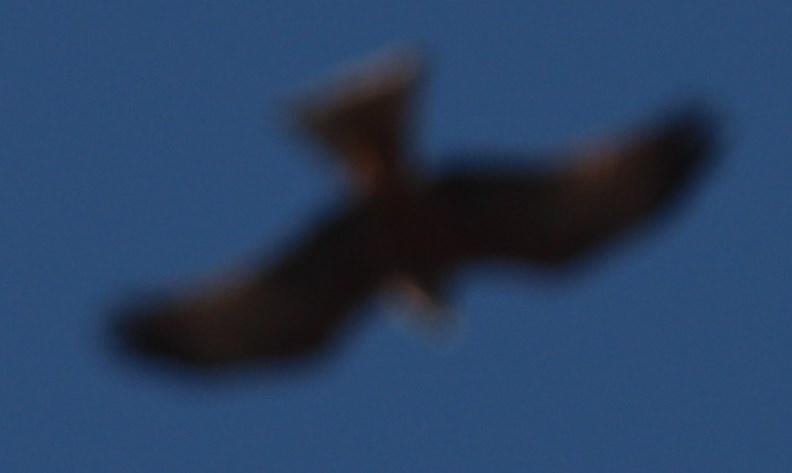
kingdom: Animalia
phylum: Chordata
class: Aves
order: Accipitriformes
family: Accipitridae
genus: Milvus
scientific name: Milvus migrans
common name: Black kite
